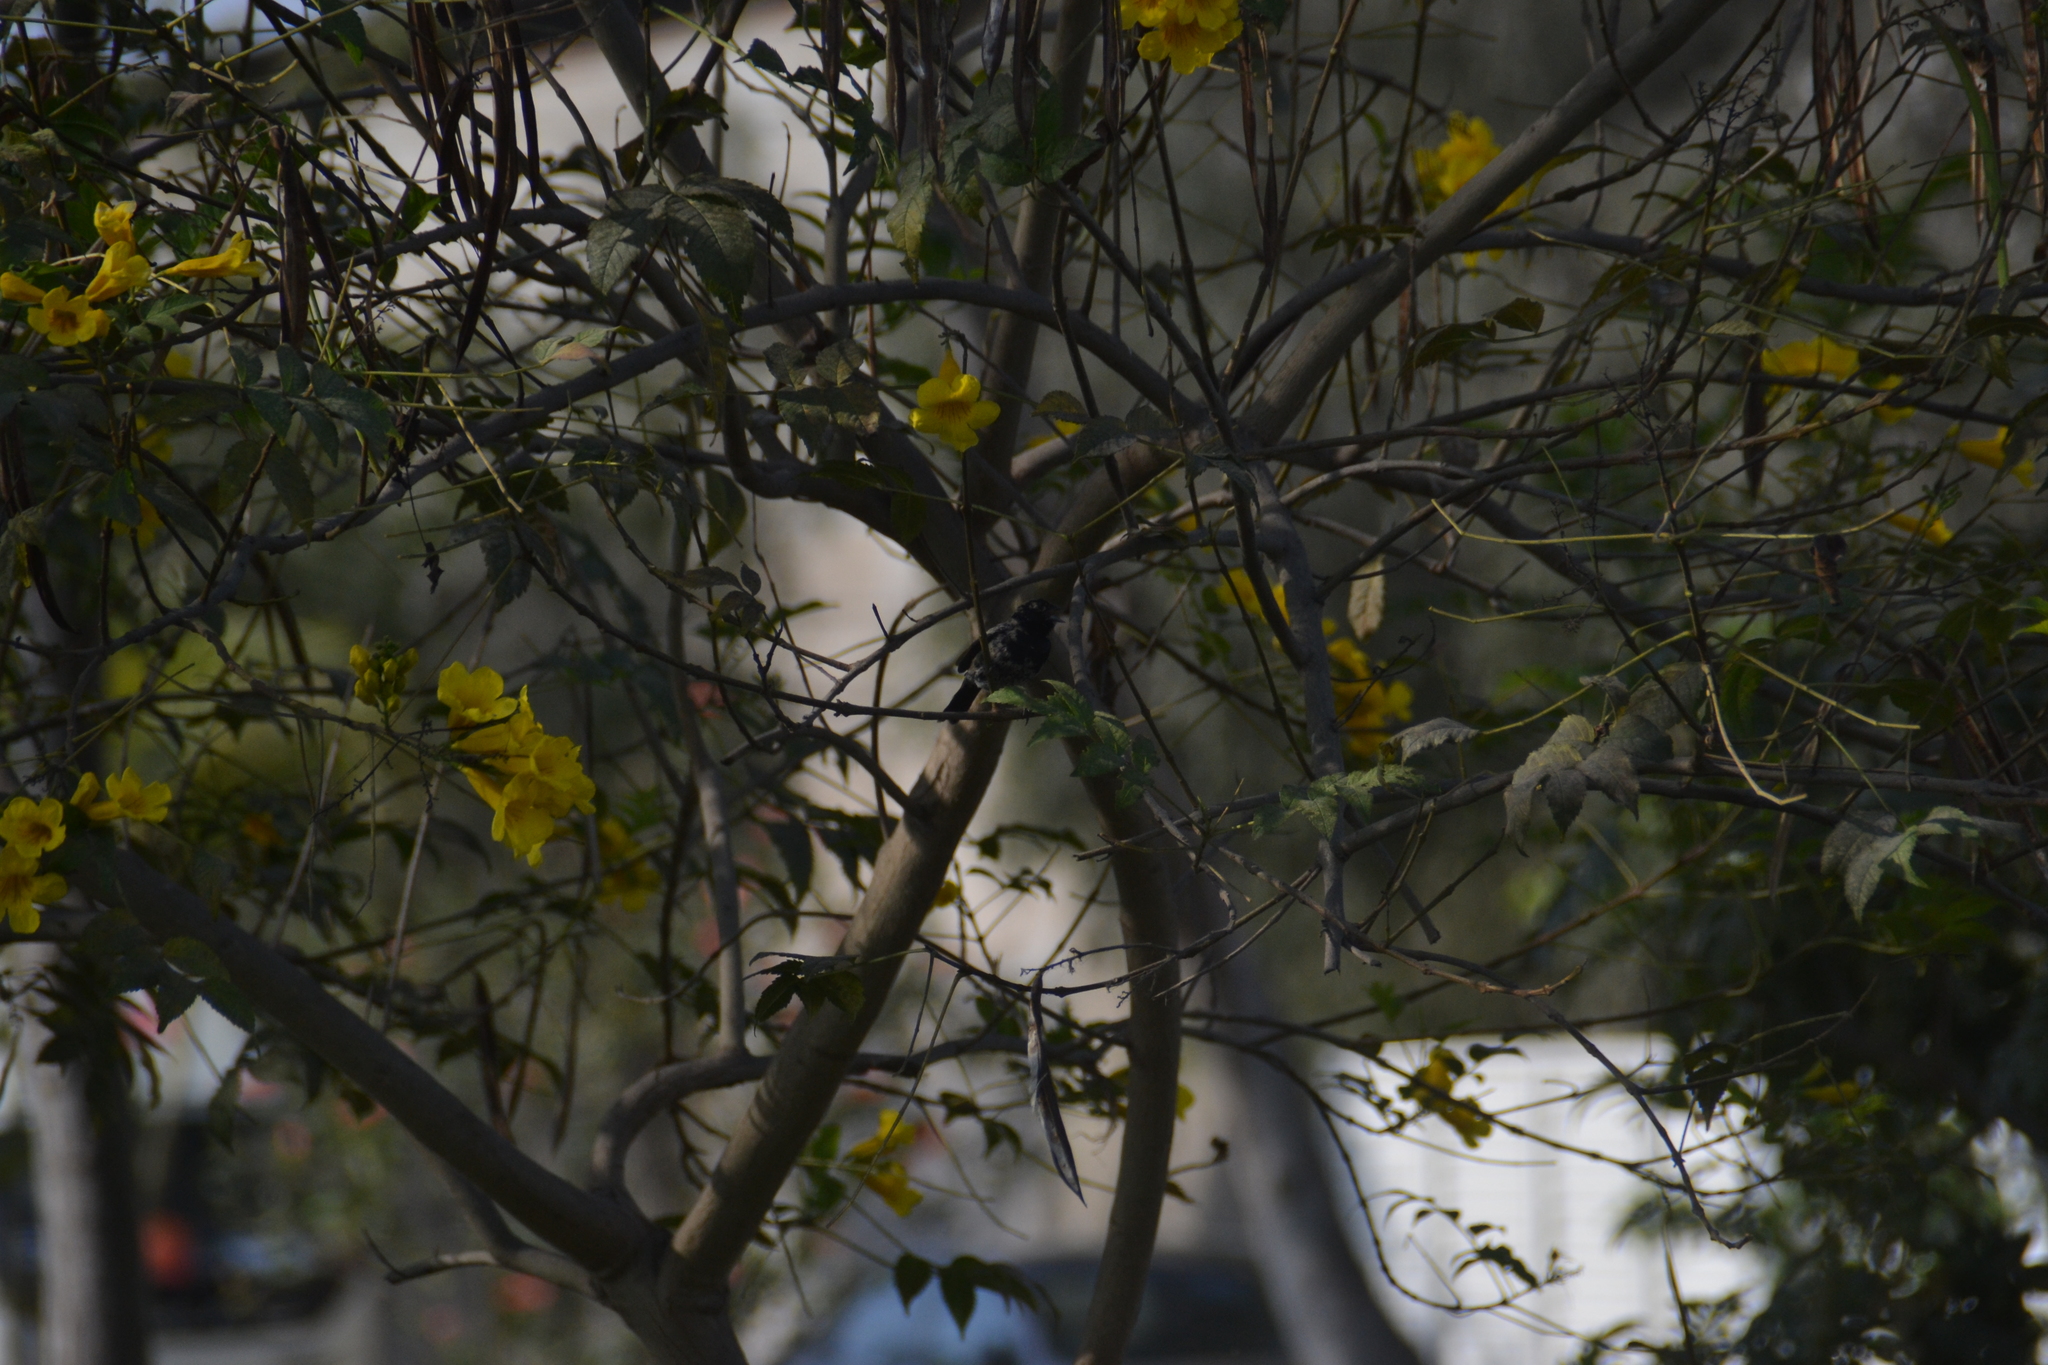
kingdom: Animalia
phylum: Chordata
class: Aves
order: Passeriformes
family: Thraupidae
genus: Volatinia
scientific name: Volatinia jacarina
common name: Blue-black grassquit
